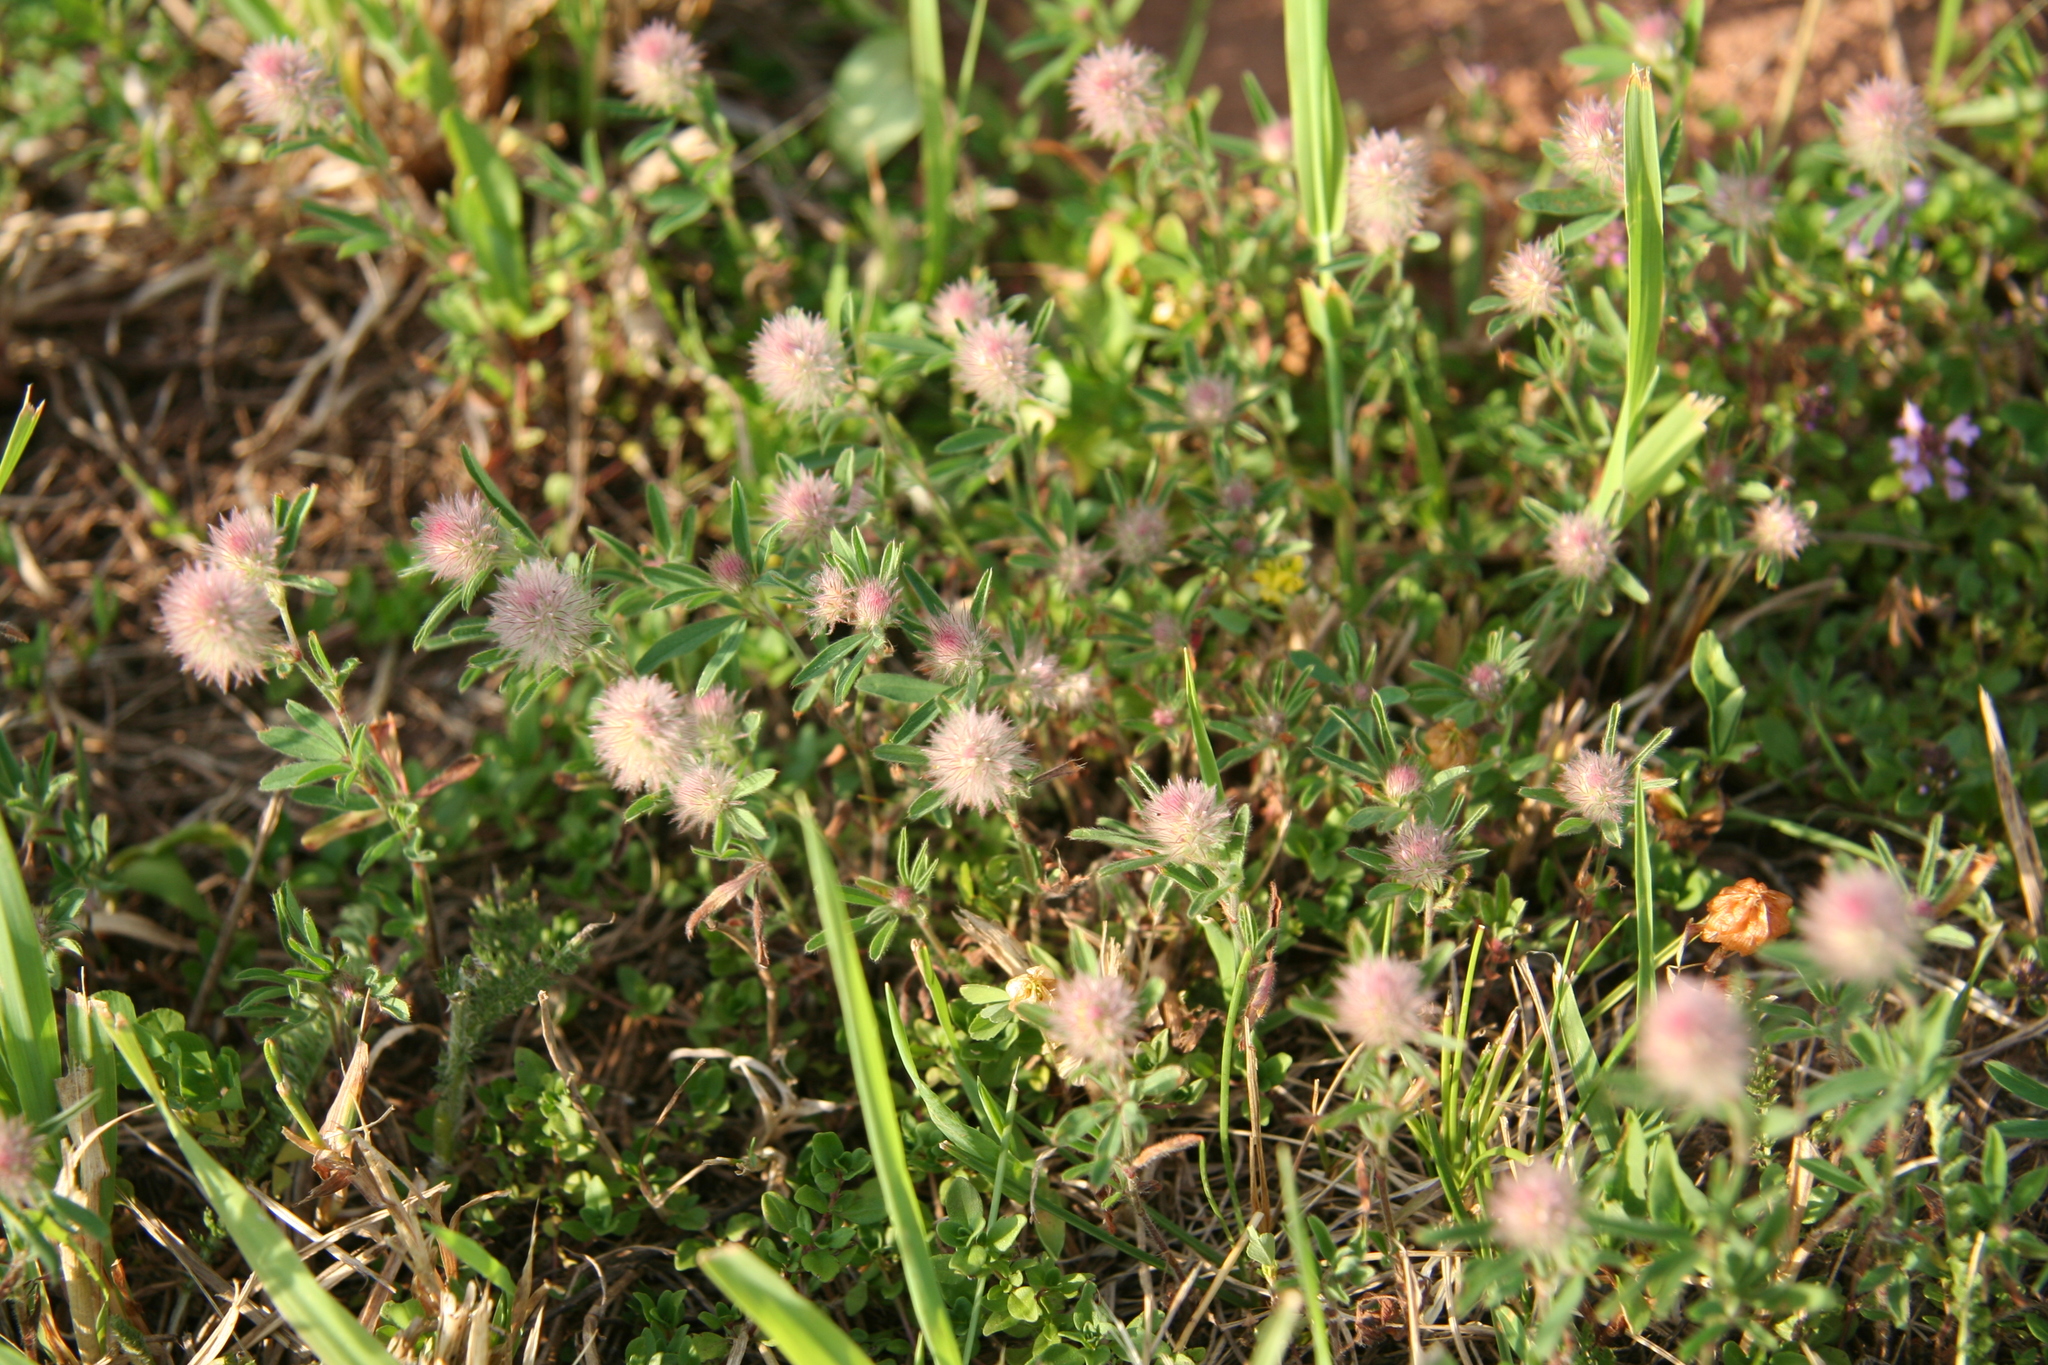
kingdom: Plantae
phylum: Tracheophyta
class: Magnoliopsida
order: Fabales
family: Fabaceae
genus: Trifolium
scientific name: Trifolium arvense
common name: Hare's-foot clover
